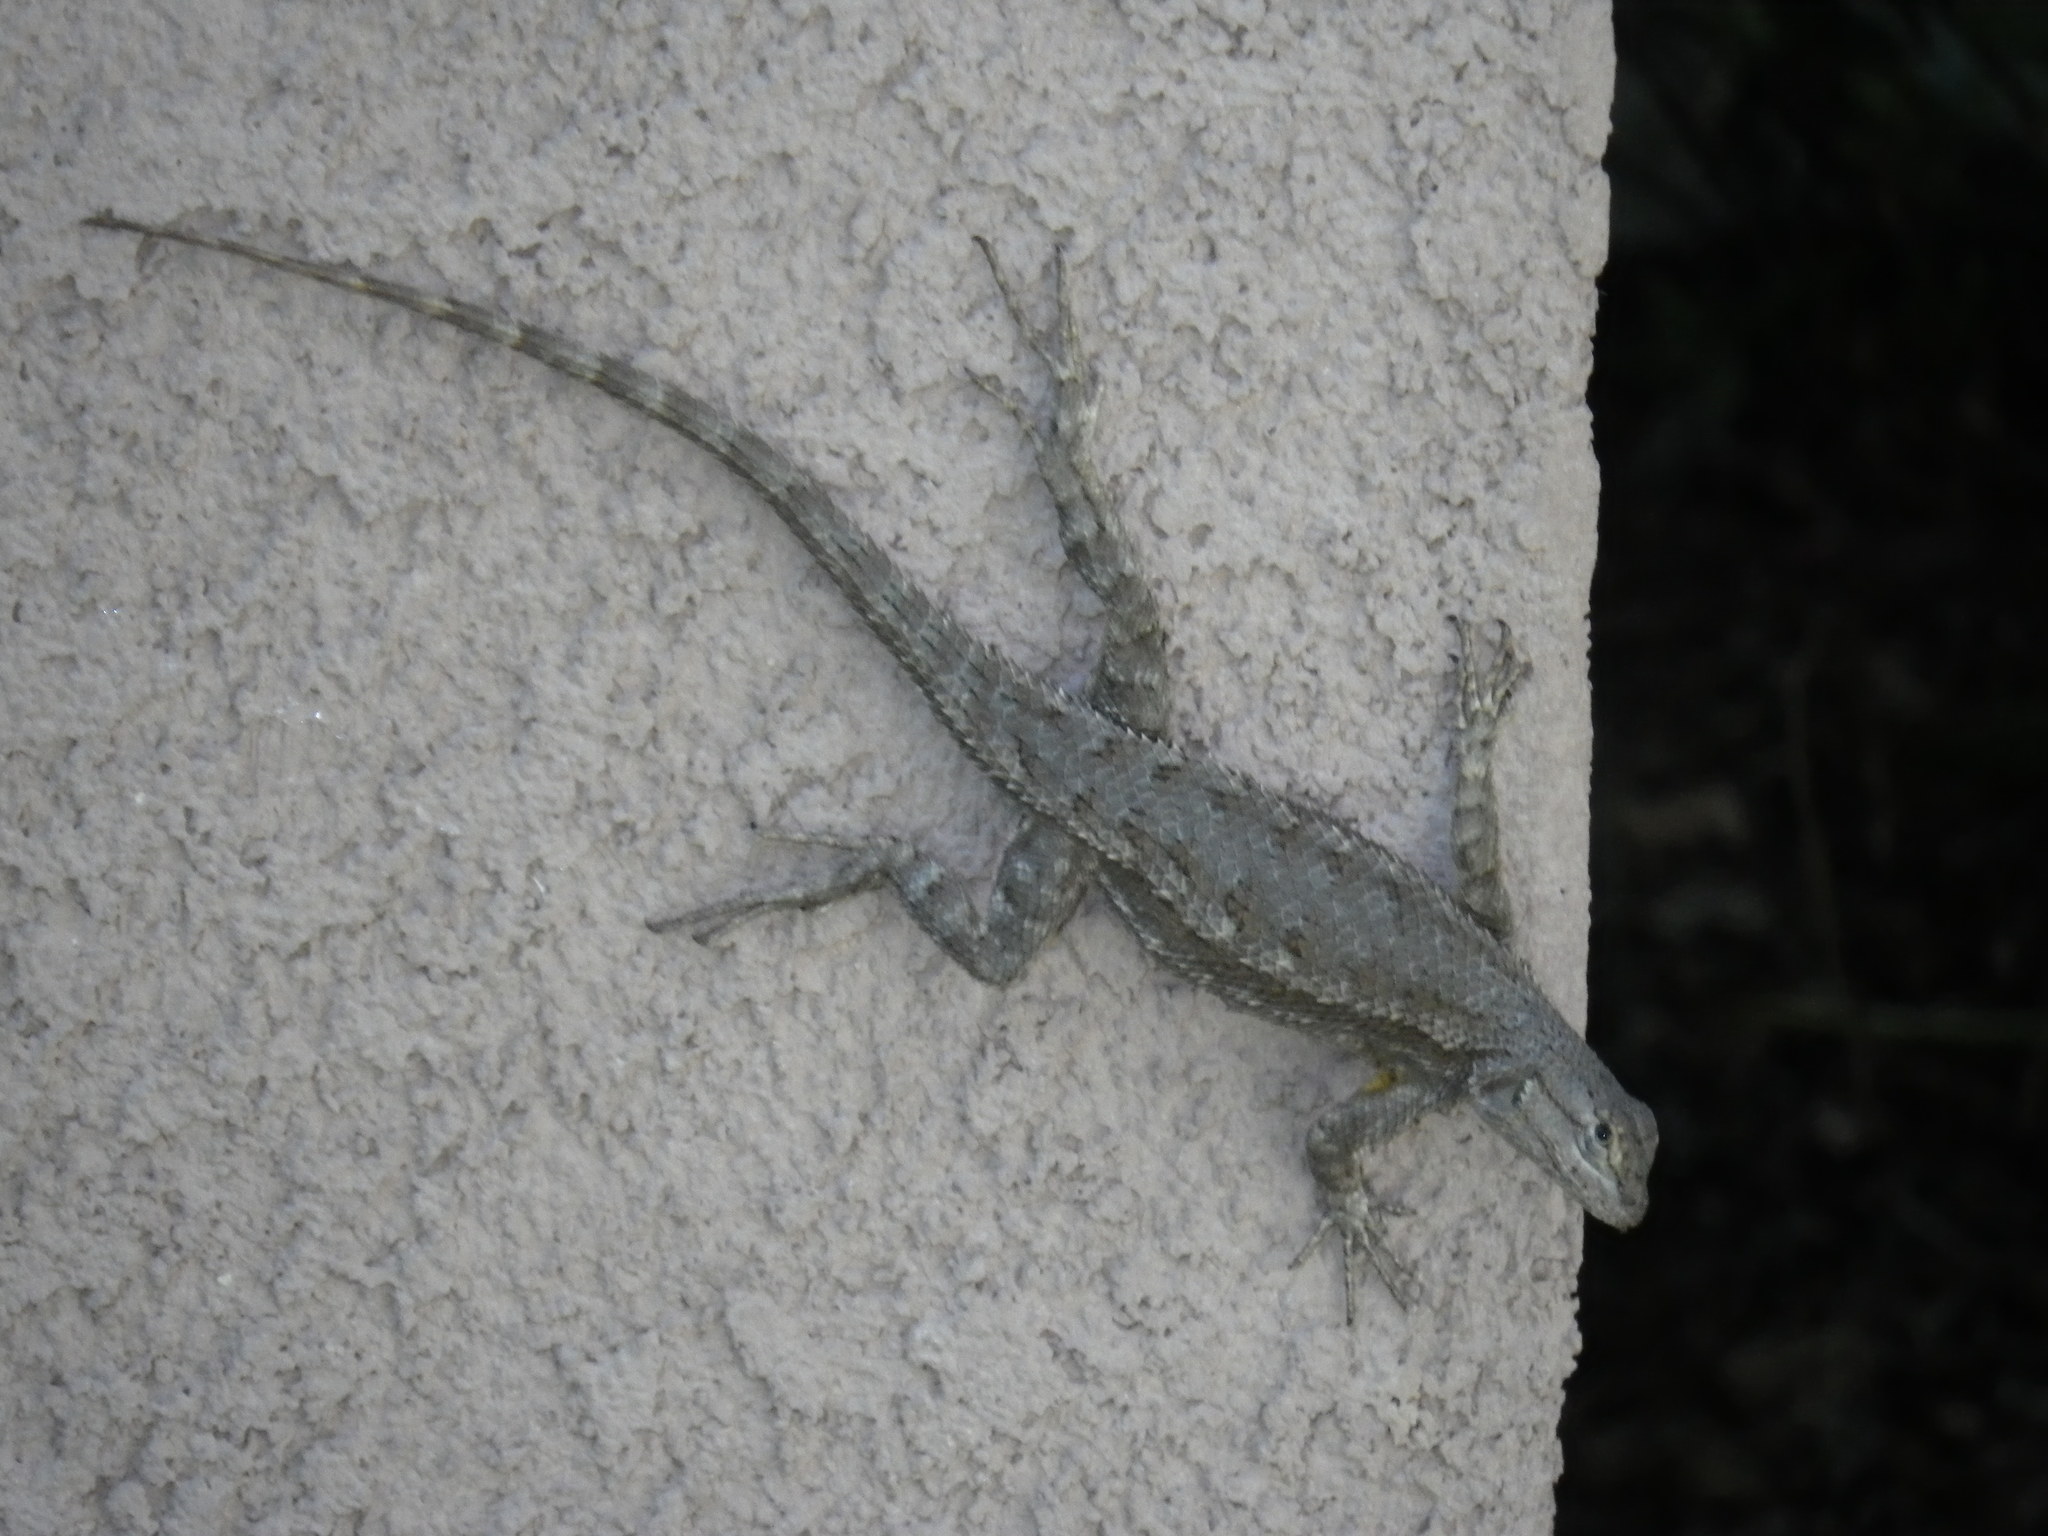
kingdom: Animalia
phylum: Chordata
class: Squamata
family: Phrynosomatidae
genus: Sceloporus
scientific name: Sceloporus occidentalis
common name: Western fence lizard
